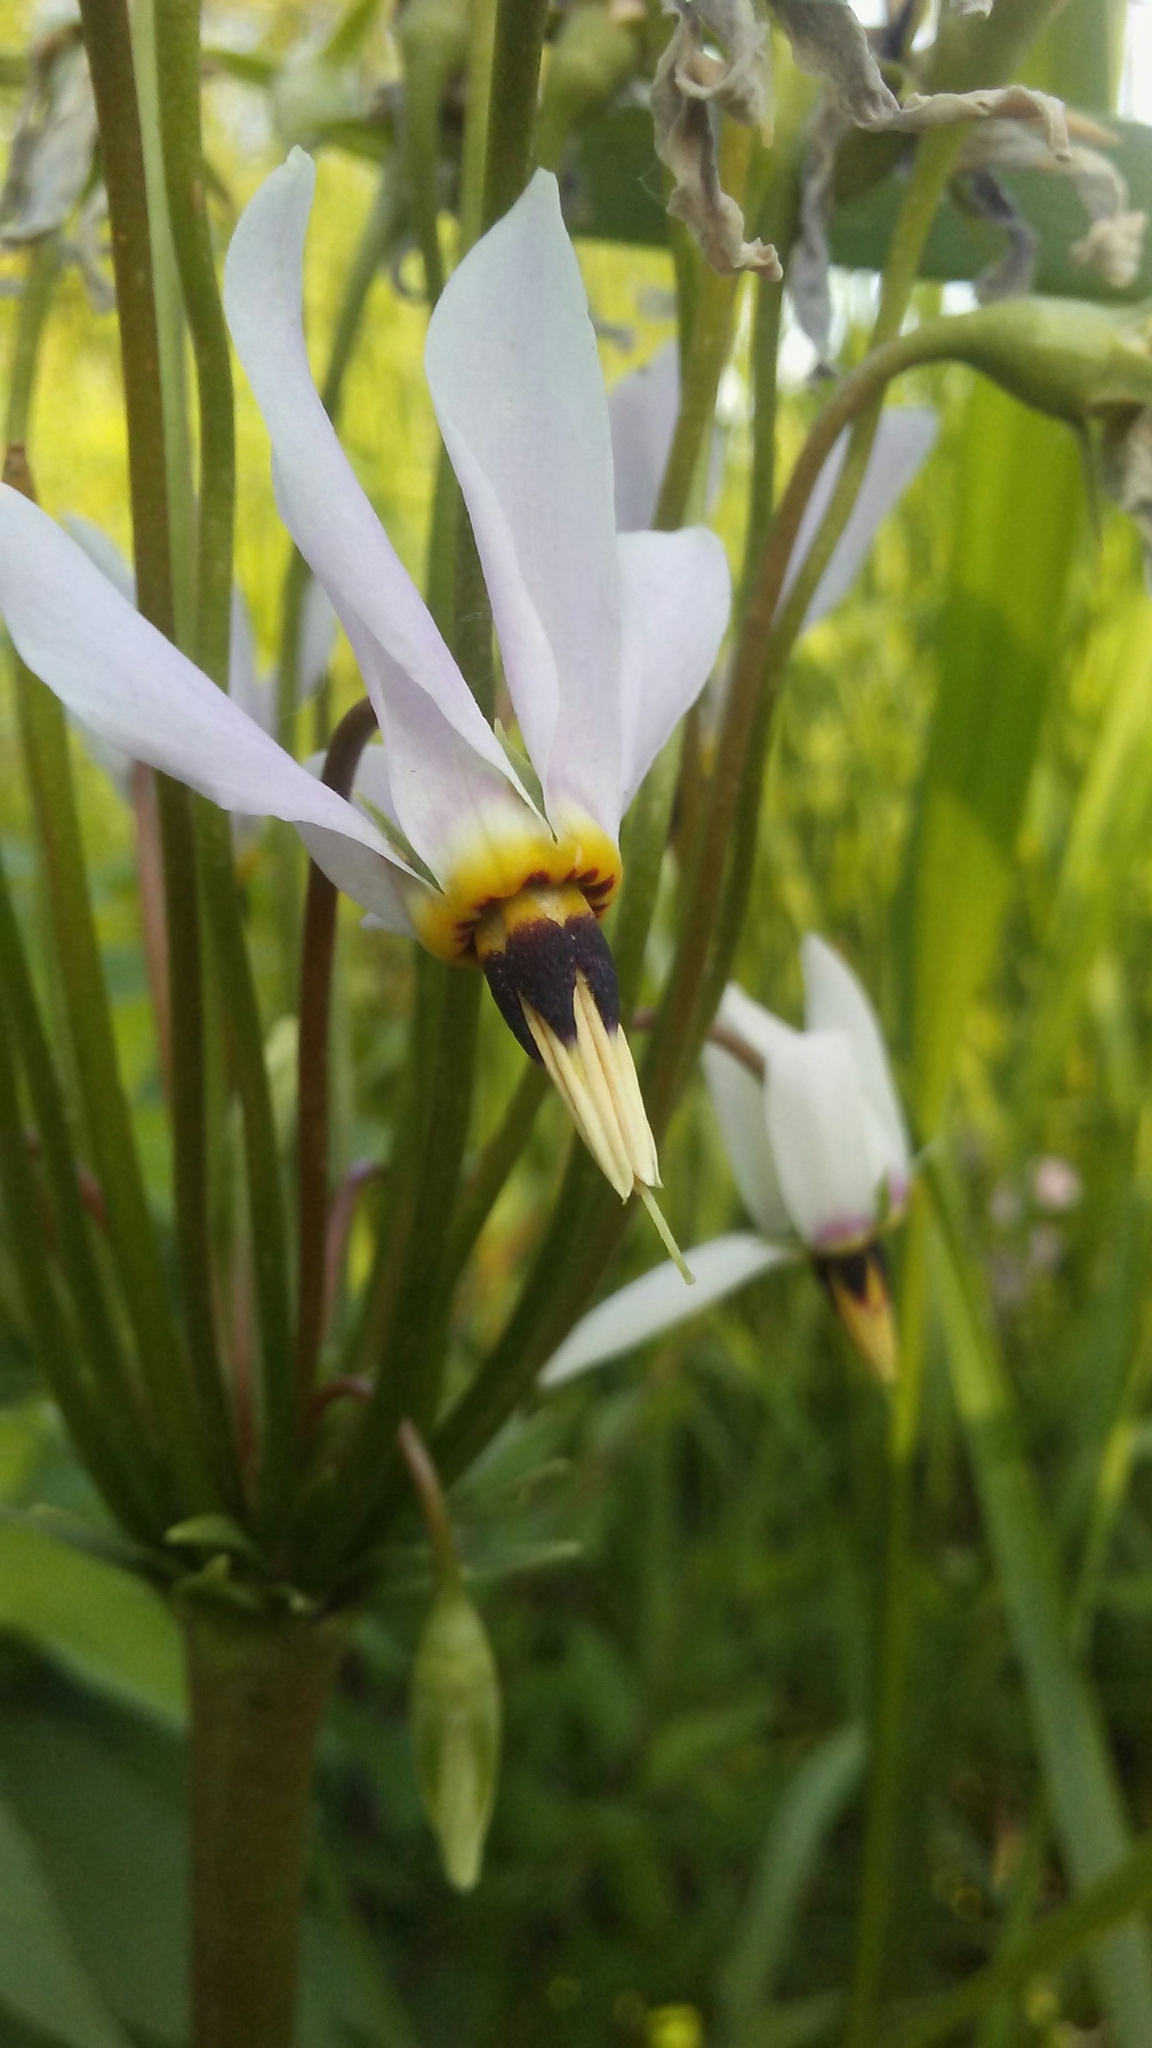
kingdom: Plantae
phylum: Tracheophyta
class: Magnoliopsida
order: Ericales
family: Primulaceae
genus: Dodecatheon
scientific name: Dodecatheon meadia
